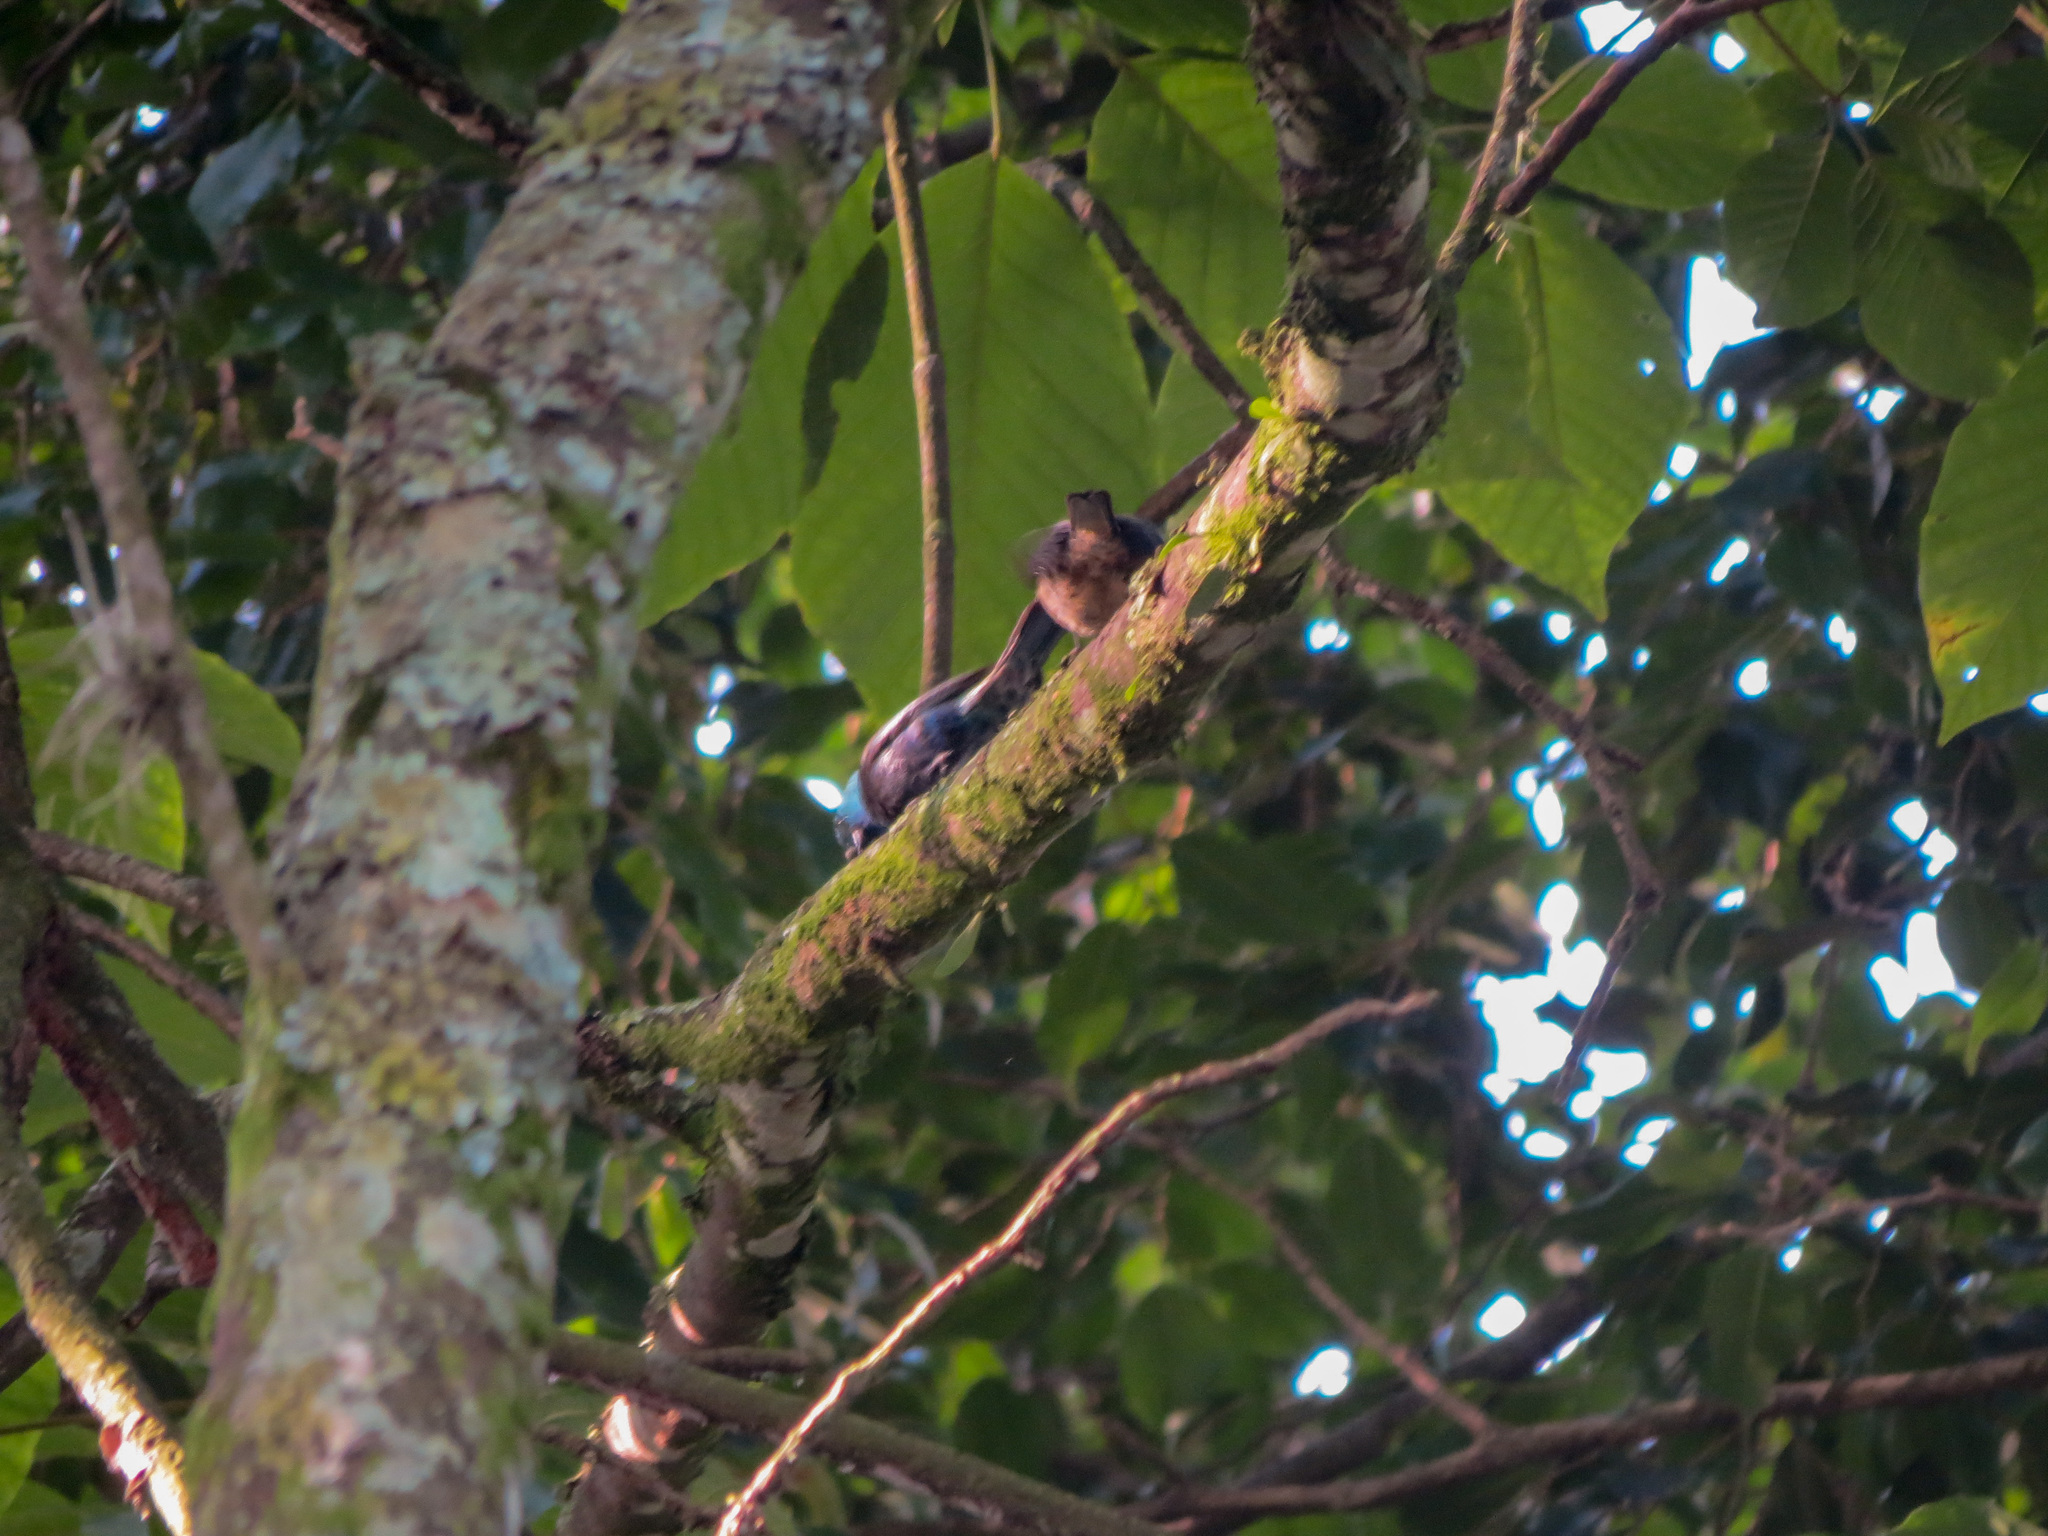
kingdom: Animalia
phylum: Chordata
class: Aves
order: Passeriformes
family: Thraupidae
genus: Stilpnia
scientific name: Stilpnia cyanicollis
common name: Blue-necked tanager
